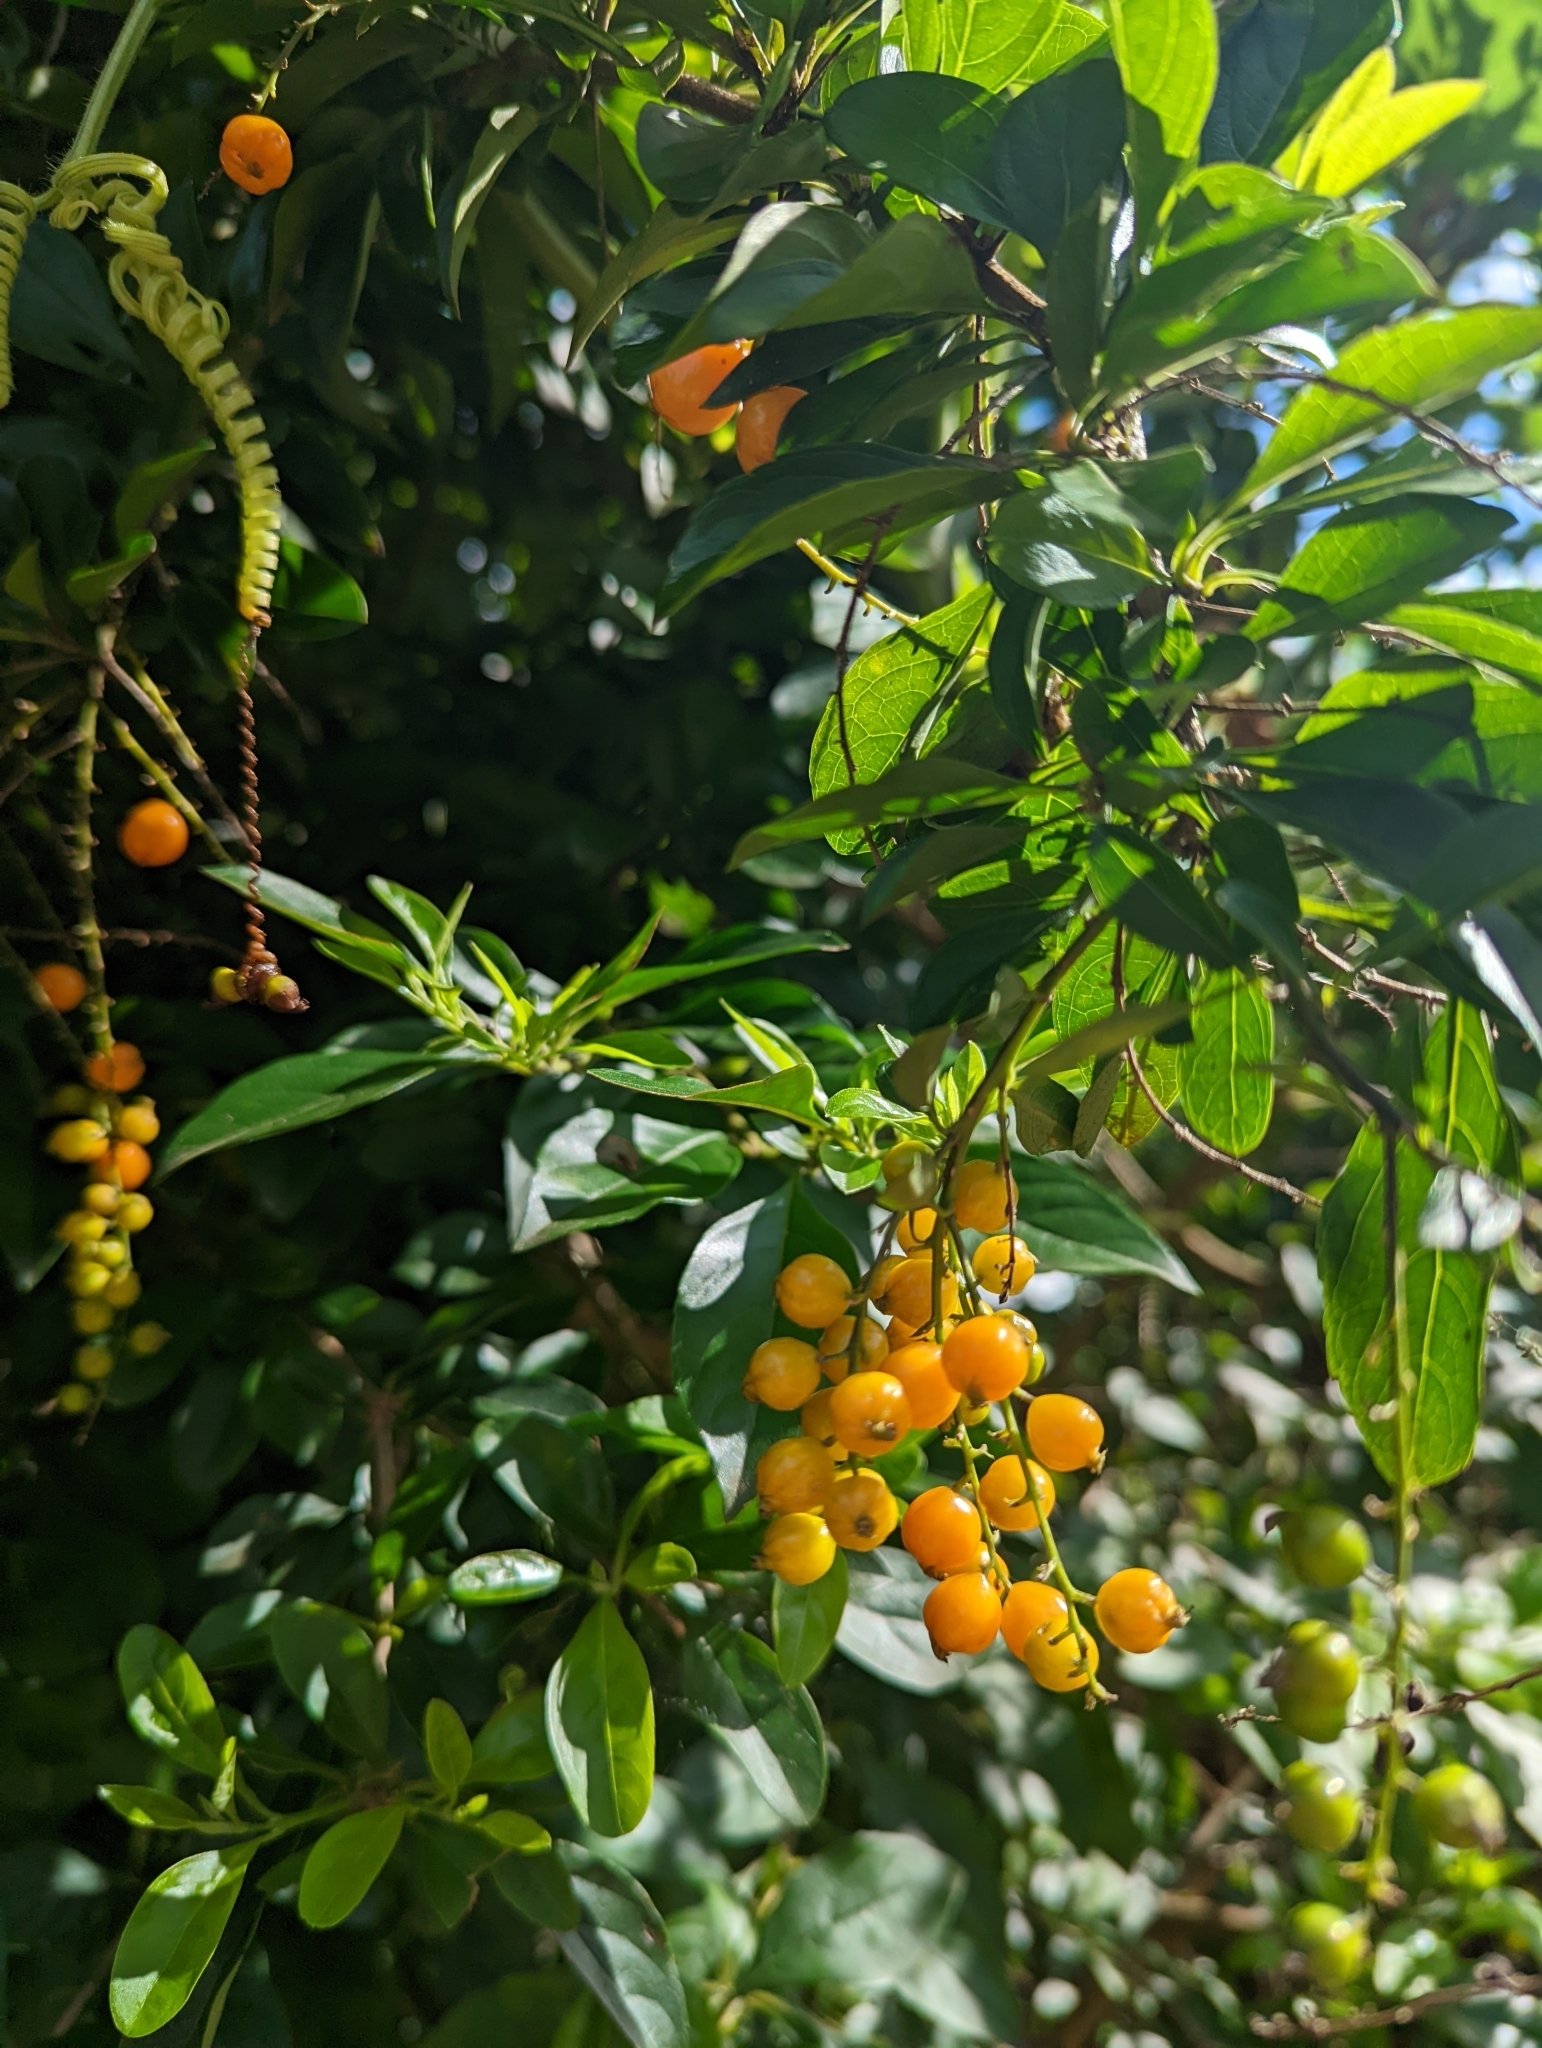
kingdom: Plantae
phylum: Tracheophyta
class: Magnoliopsida
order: Lamiales
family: Verbenaceae
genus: Duranta
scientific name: Duranta erecta
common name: Golden dewdrops
